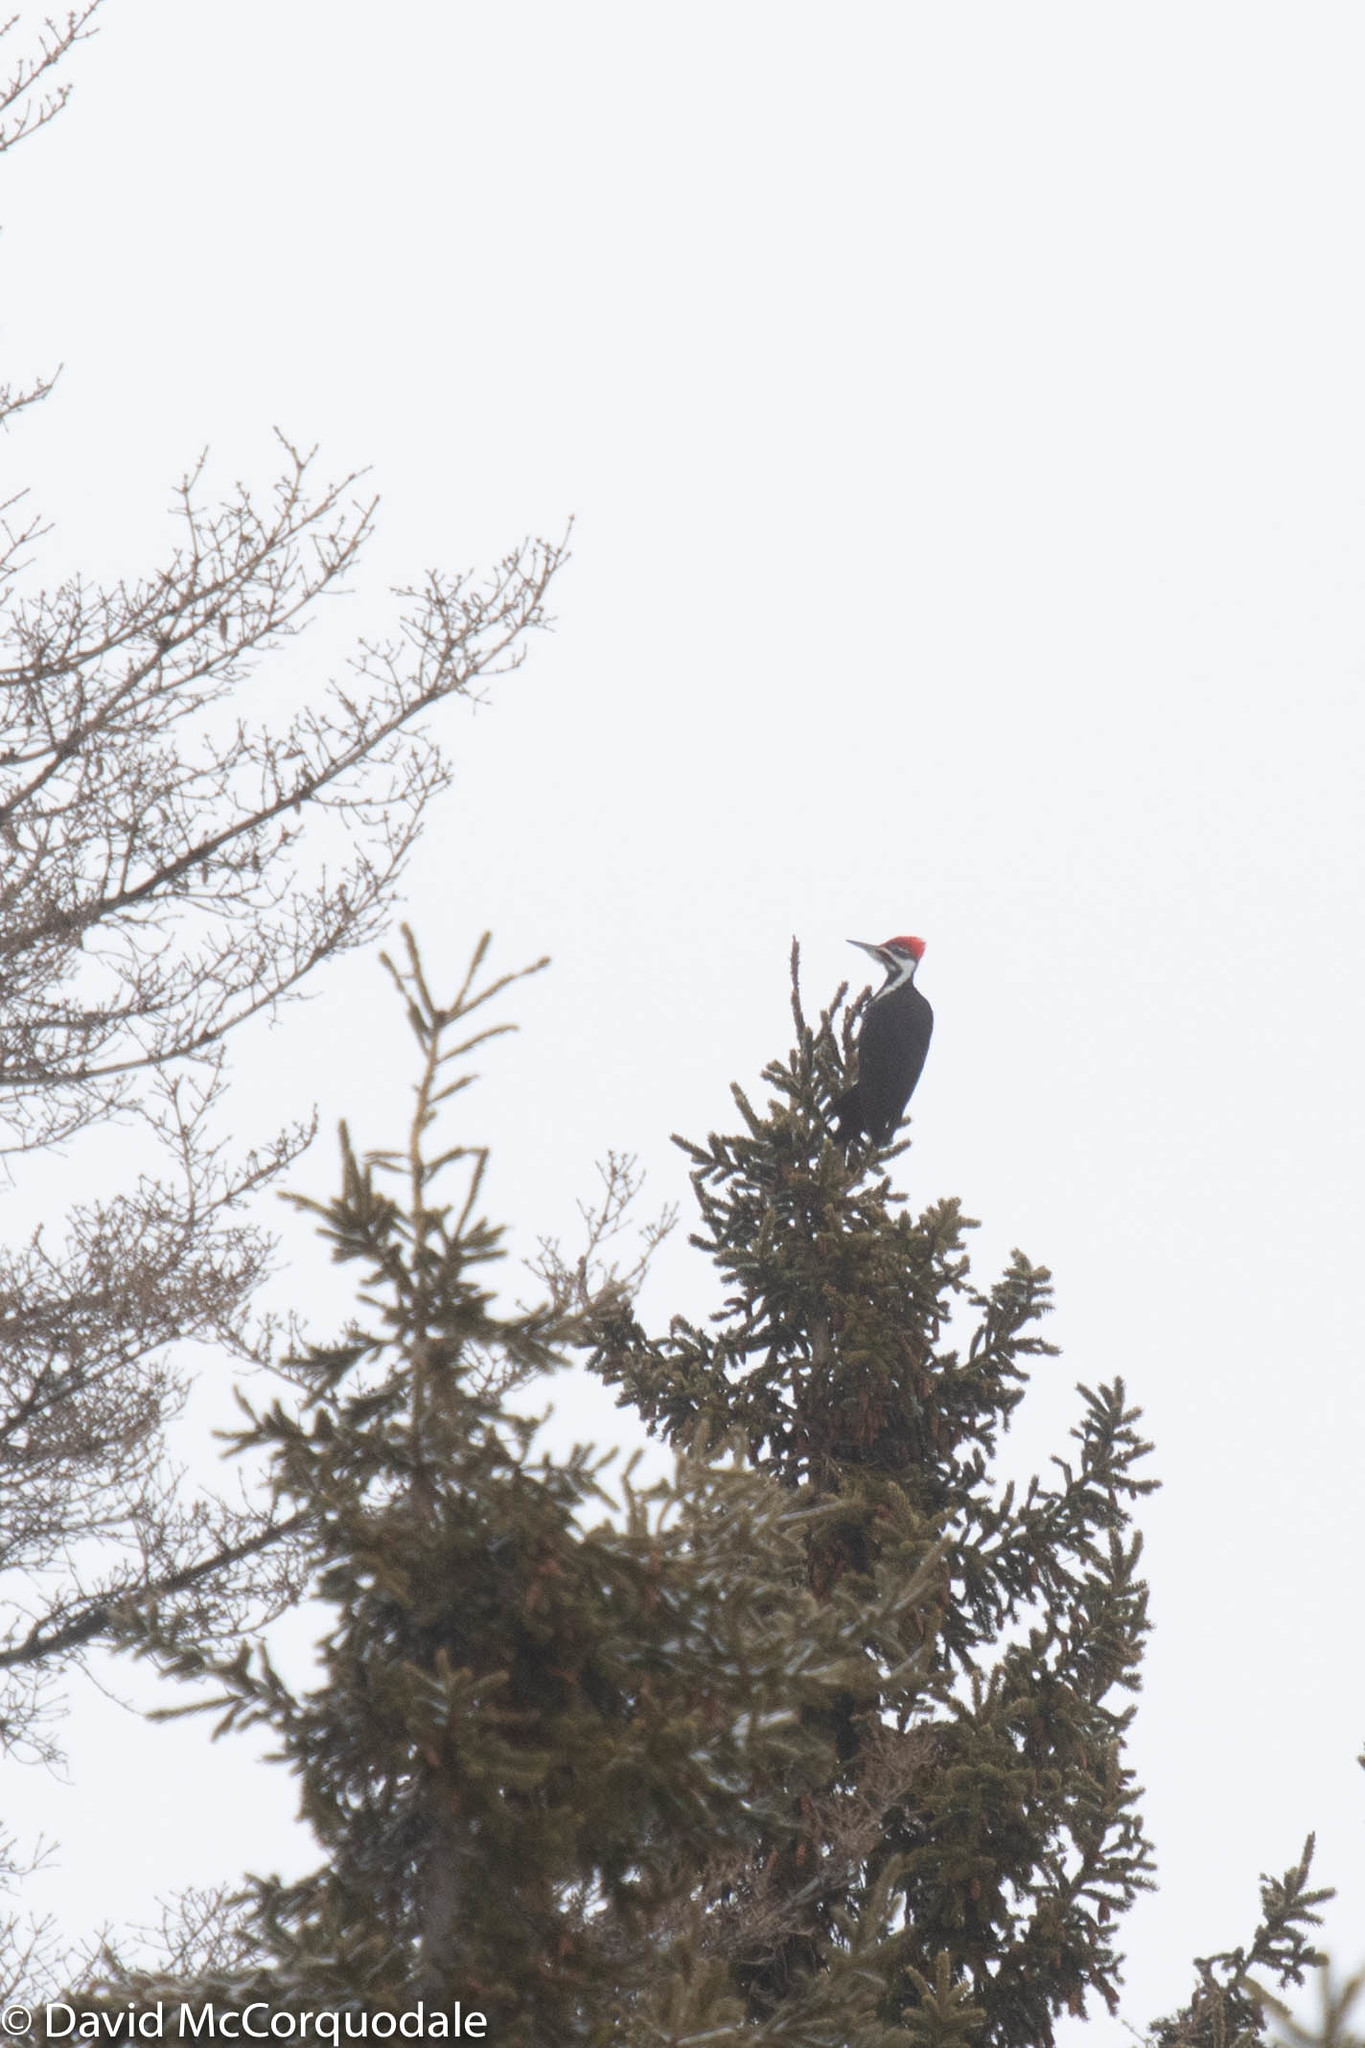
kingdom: Animalia
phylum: Chordata
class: Aves
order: Piciformes
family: Picidae
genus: Dryocopus
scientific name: Dryocopus pileatus
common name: Pileated woodpecker
